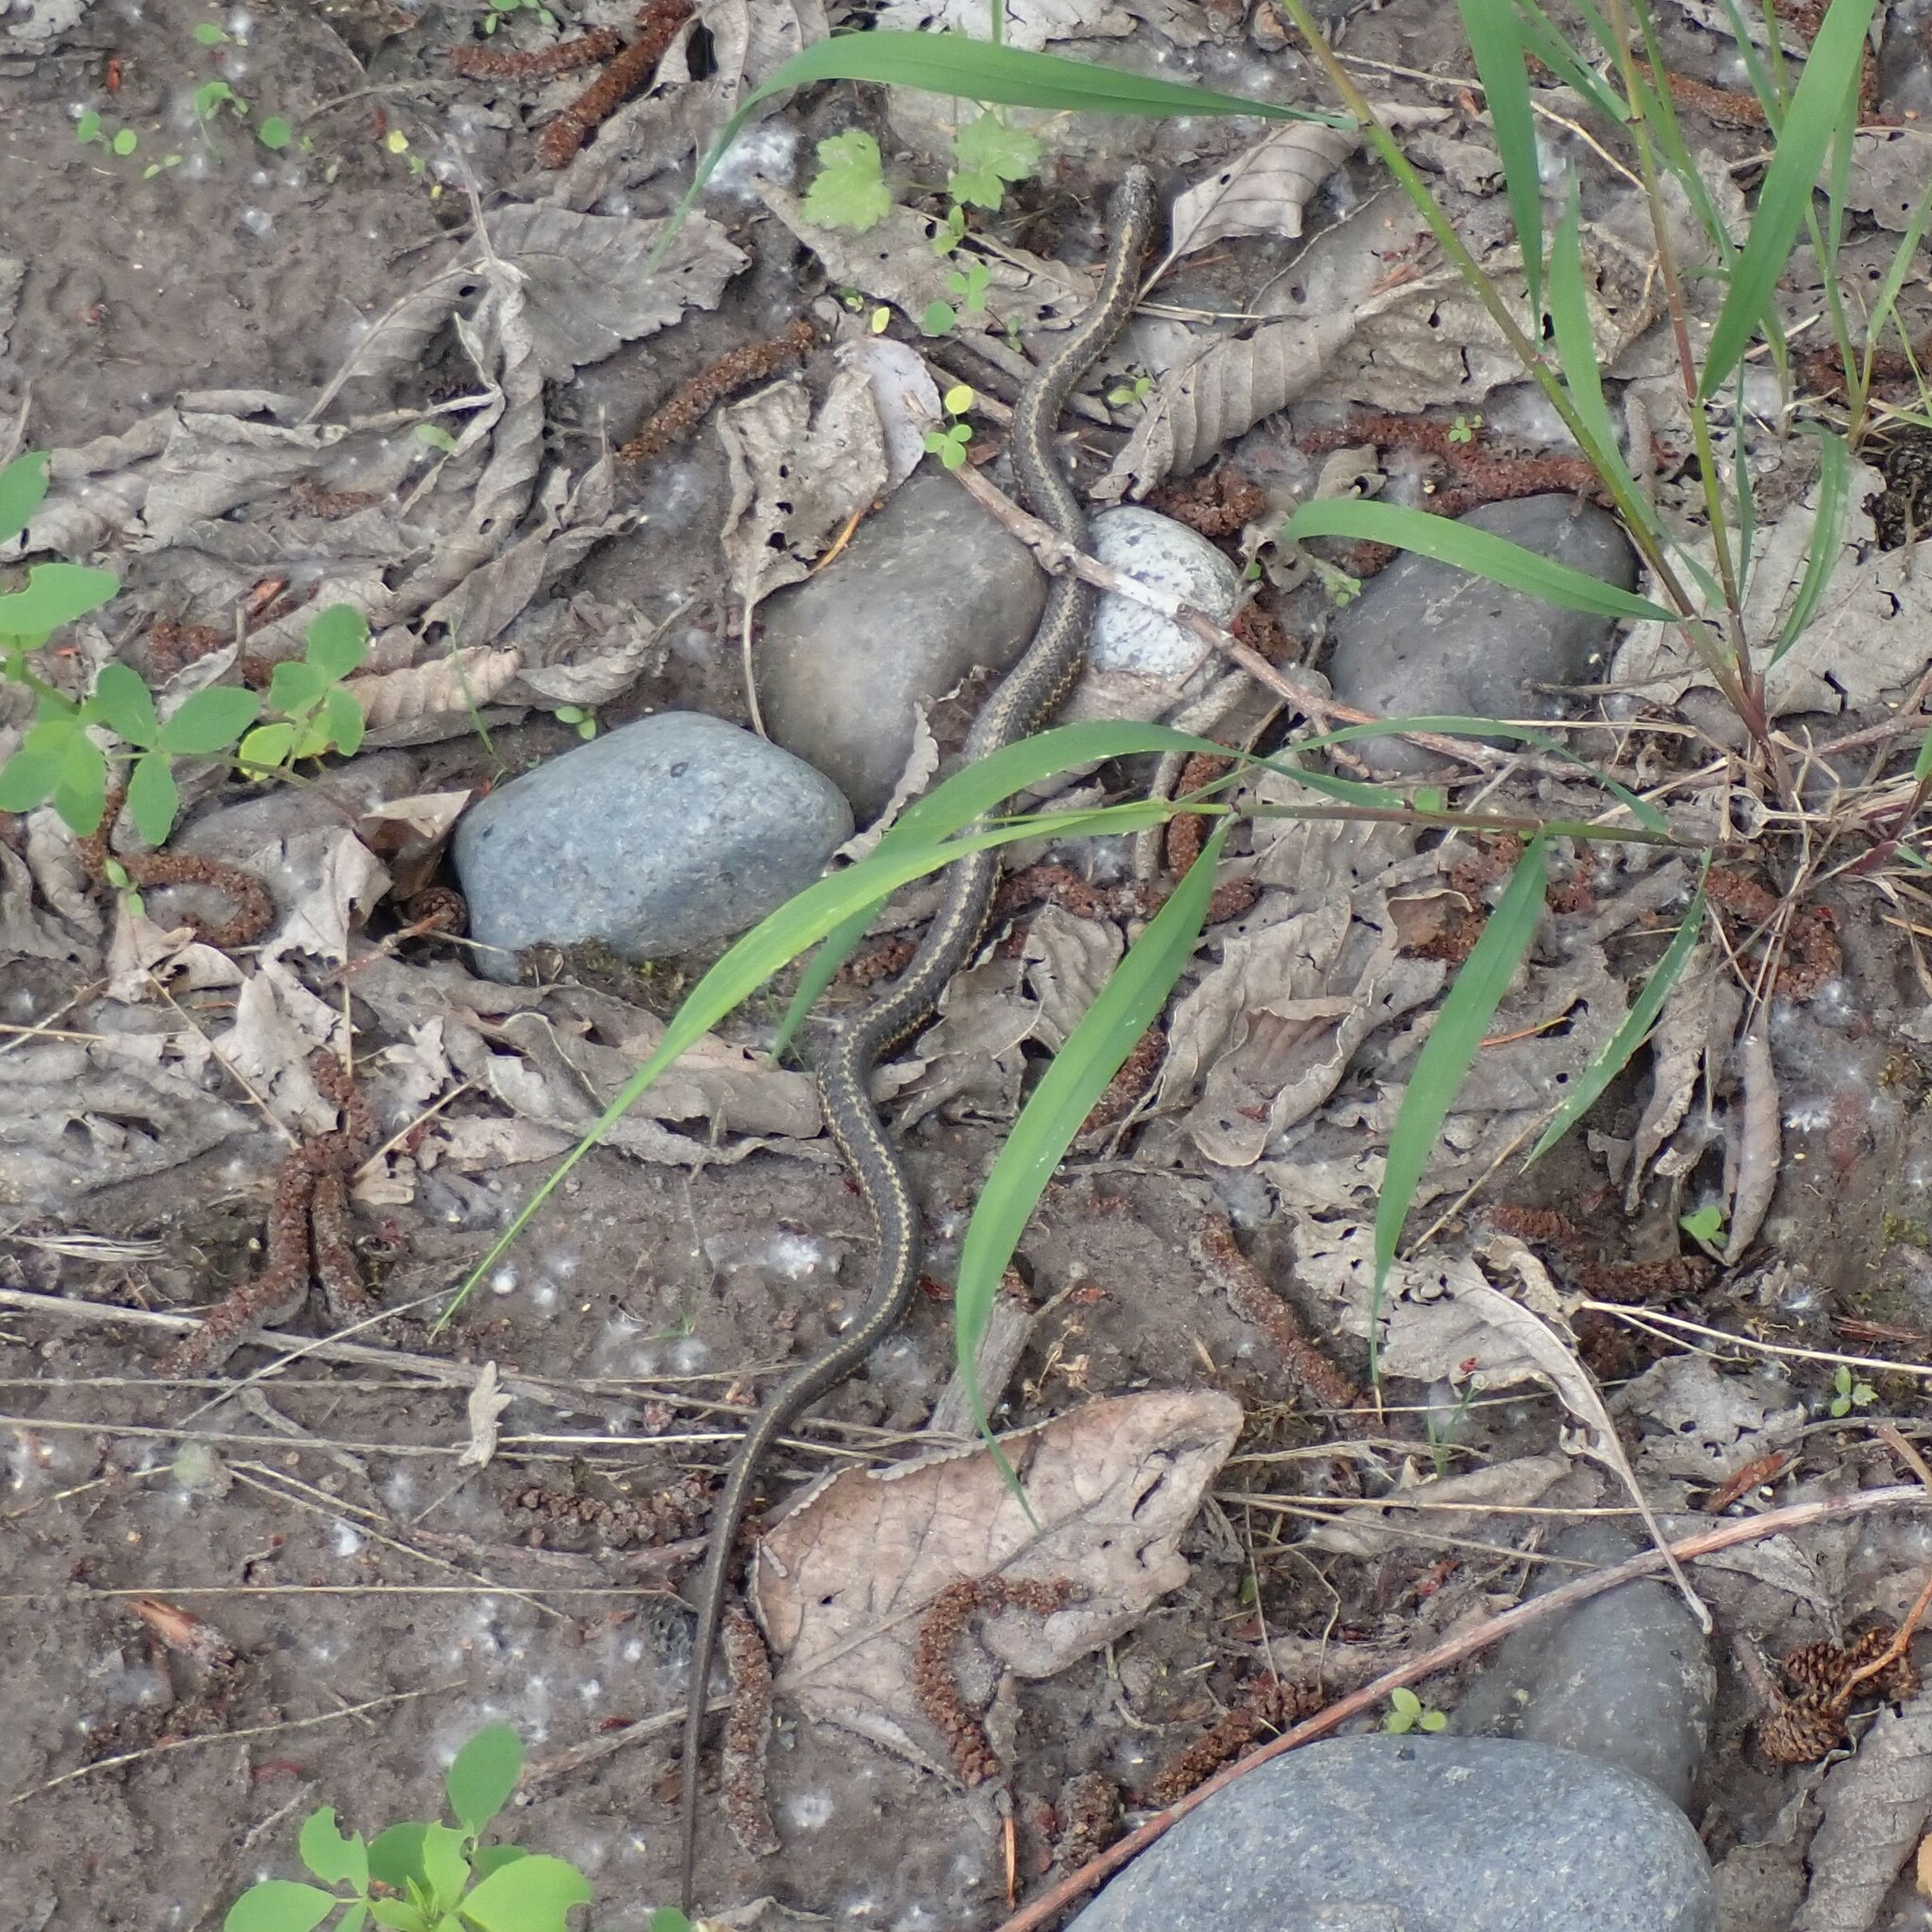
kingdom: Animalia
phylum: Chordata
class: Squamata
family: Colubridae
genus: Thamnophis
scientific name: Thamnophis elegans
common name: Western terrestrial garter snake
